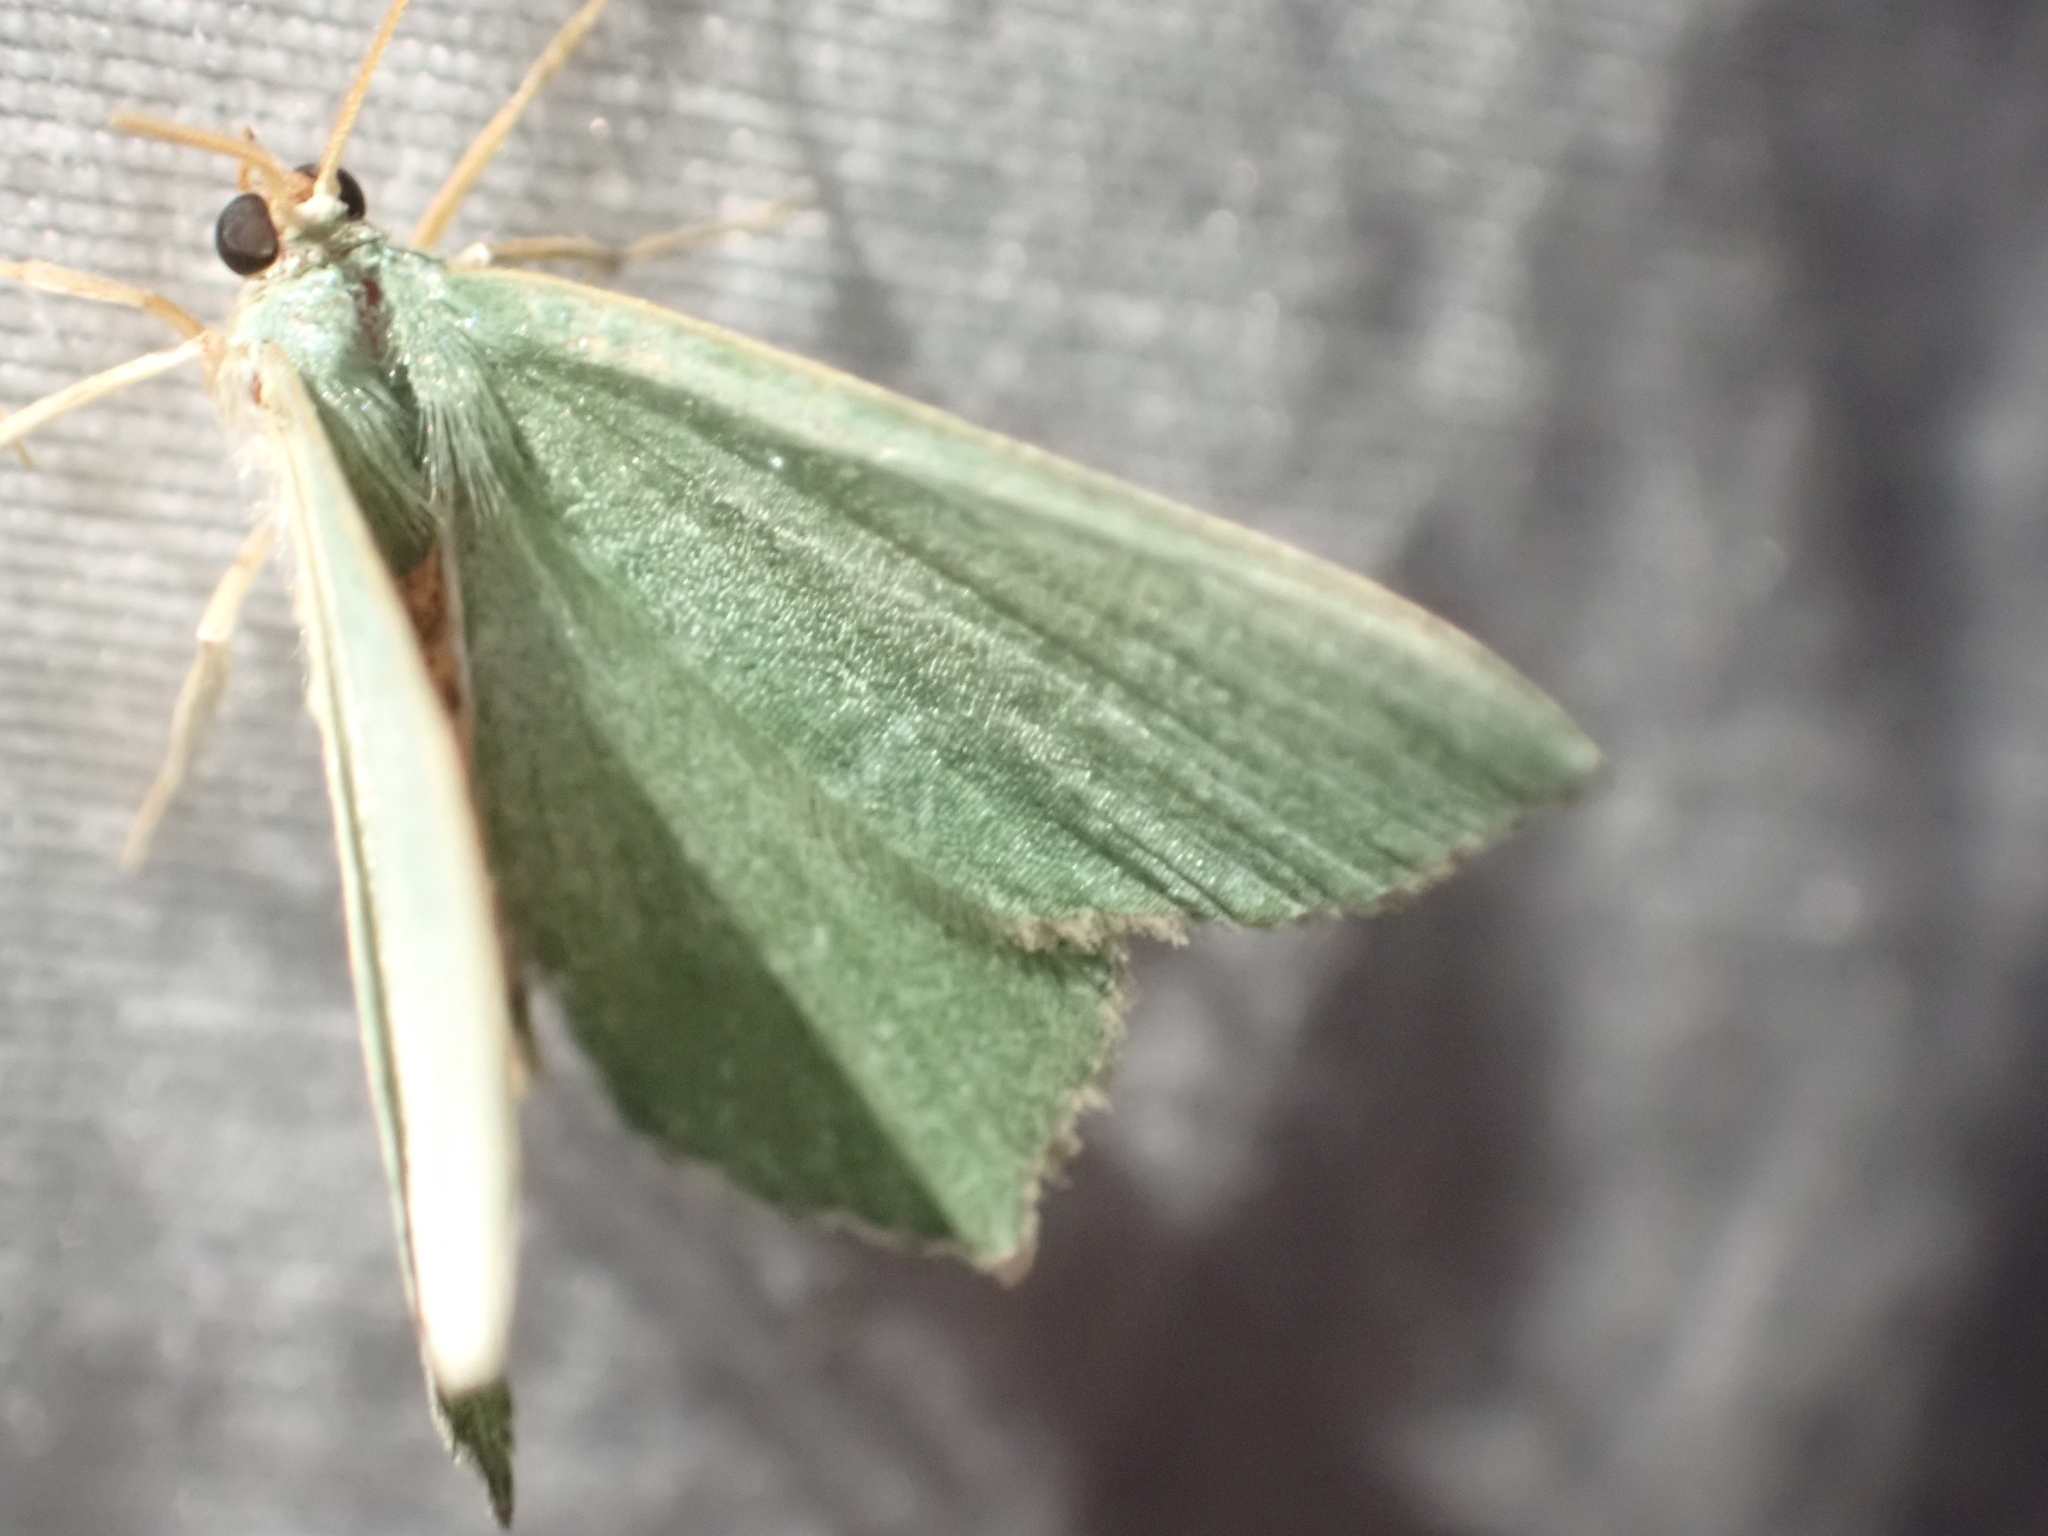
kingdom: Animalia
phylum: Arthropoda
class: Insecta
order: Lepidoptera
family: Geometridae
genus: Hemithea
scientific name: Hemithea aestivaria
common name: Common emerald
